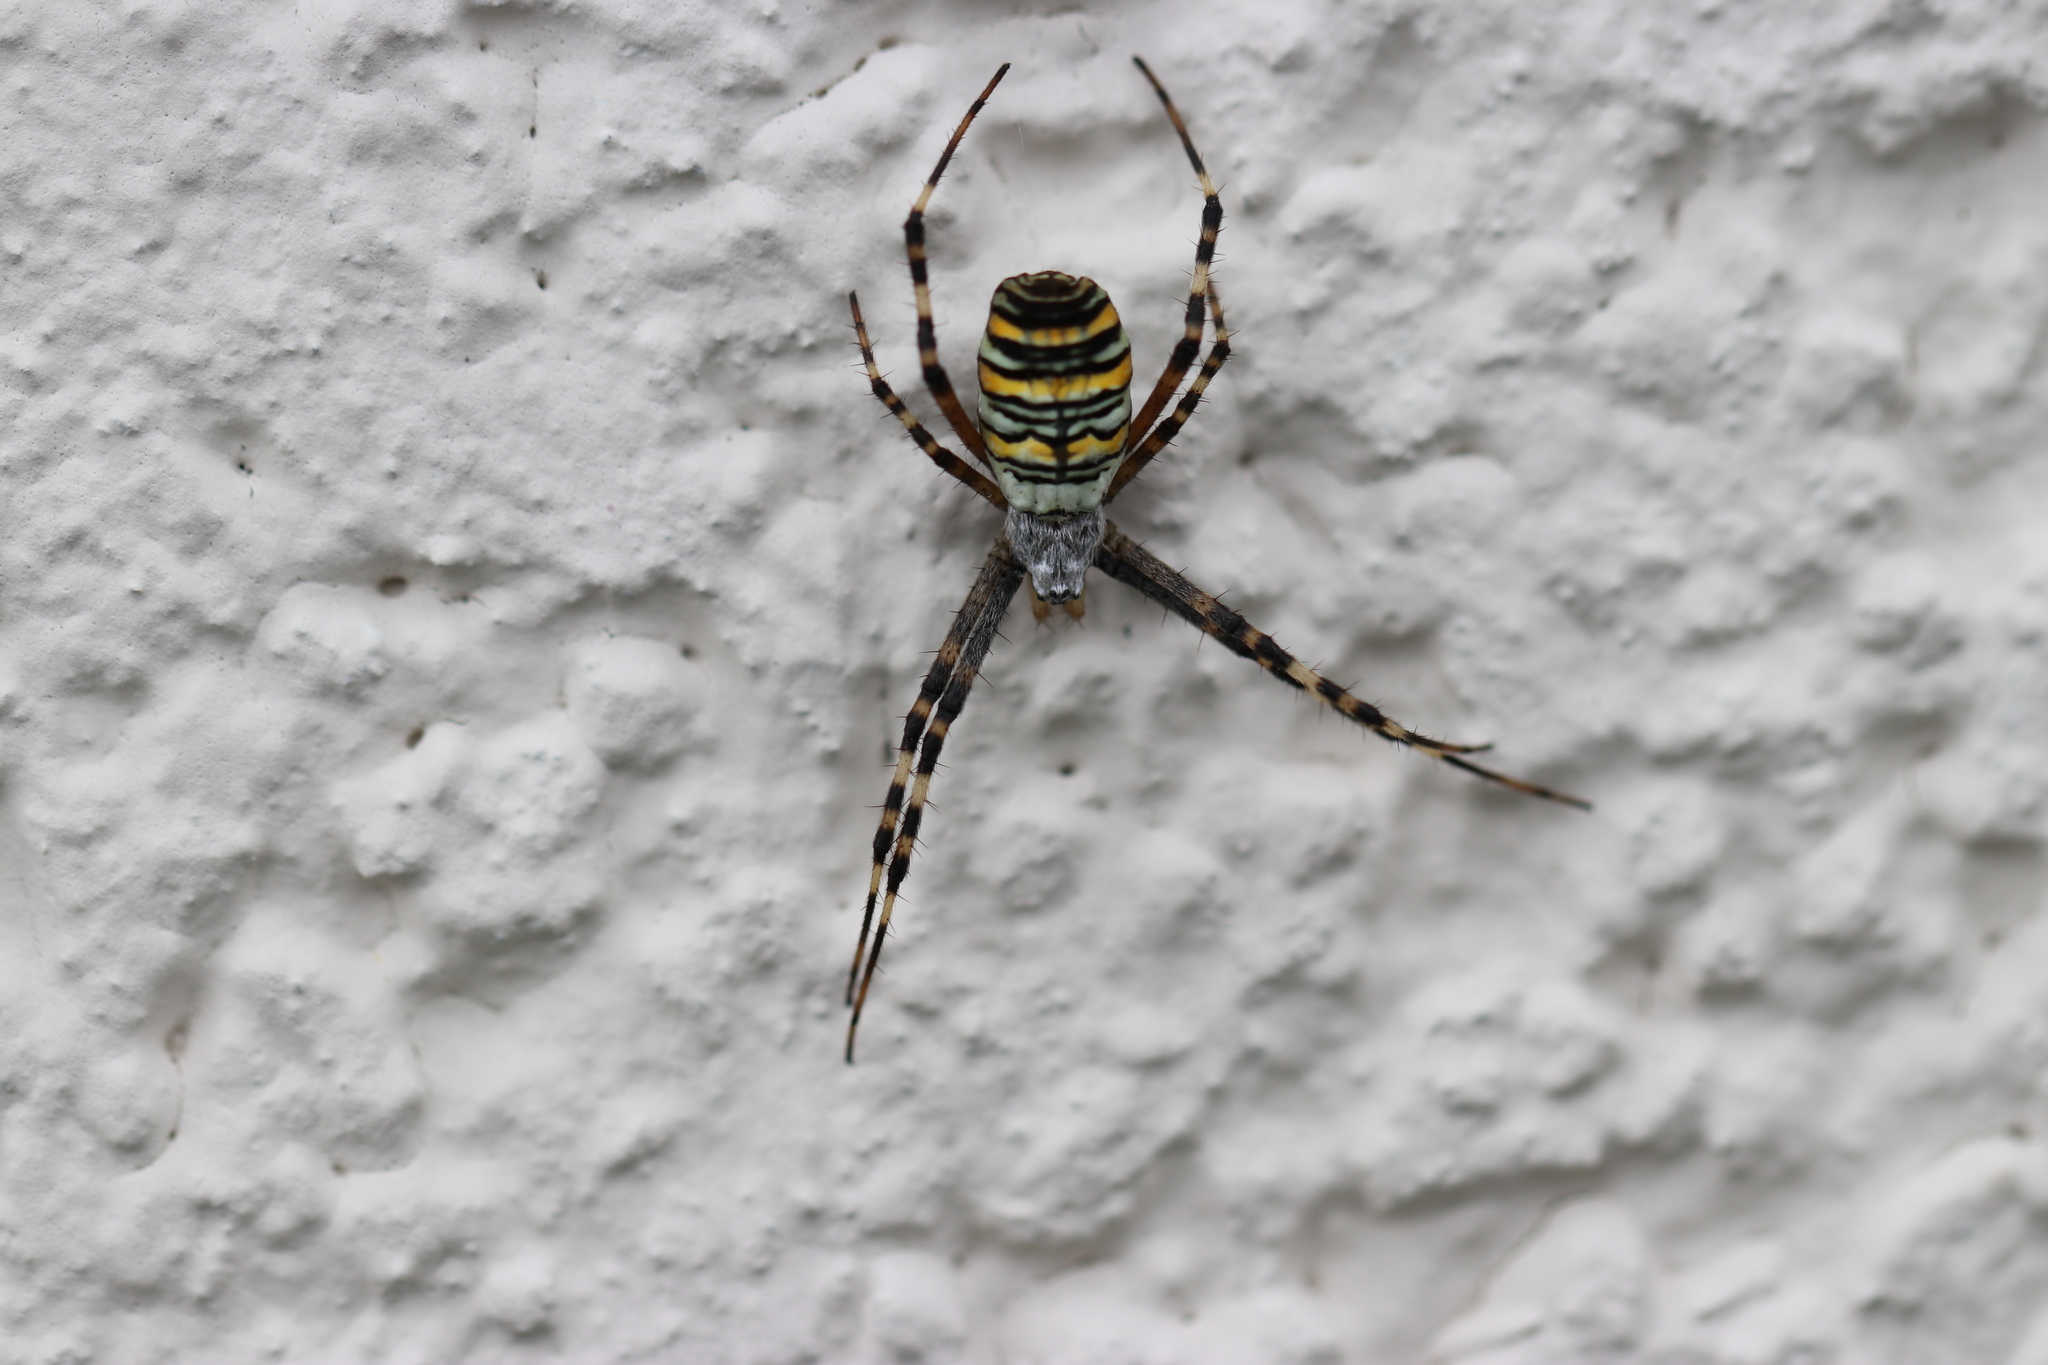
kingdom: Animalia
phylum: Arthropoda
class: Arachnida
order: Araneae
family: Araneidae
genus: Argiope
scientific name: Argiope bruennichi
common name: Wasp spider
